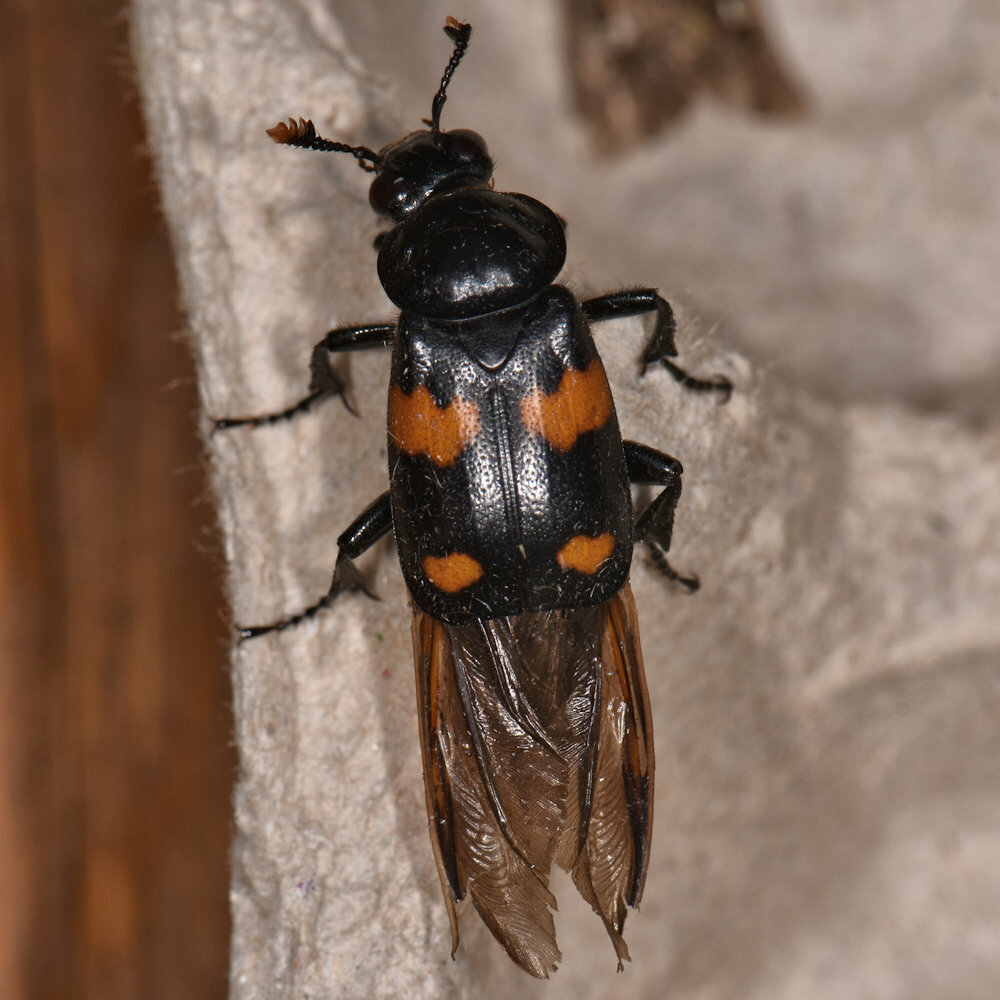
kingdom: Animalia
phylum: Arthropoda
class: Insecta
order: Coleoptera
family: Staphylinidae
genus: Nicrophorus
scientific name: Nicrophorus orbicollis
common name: Roundneck sexton beetle
